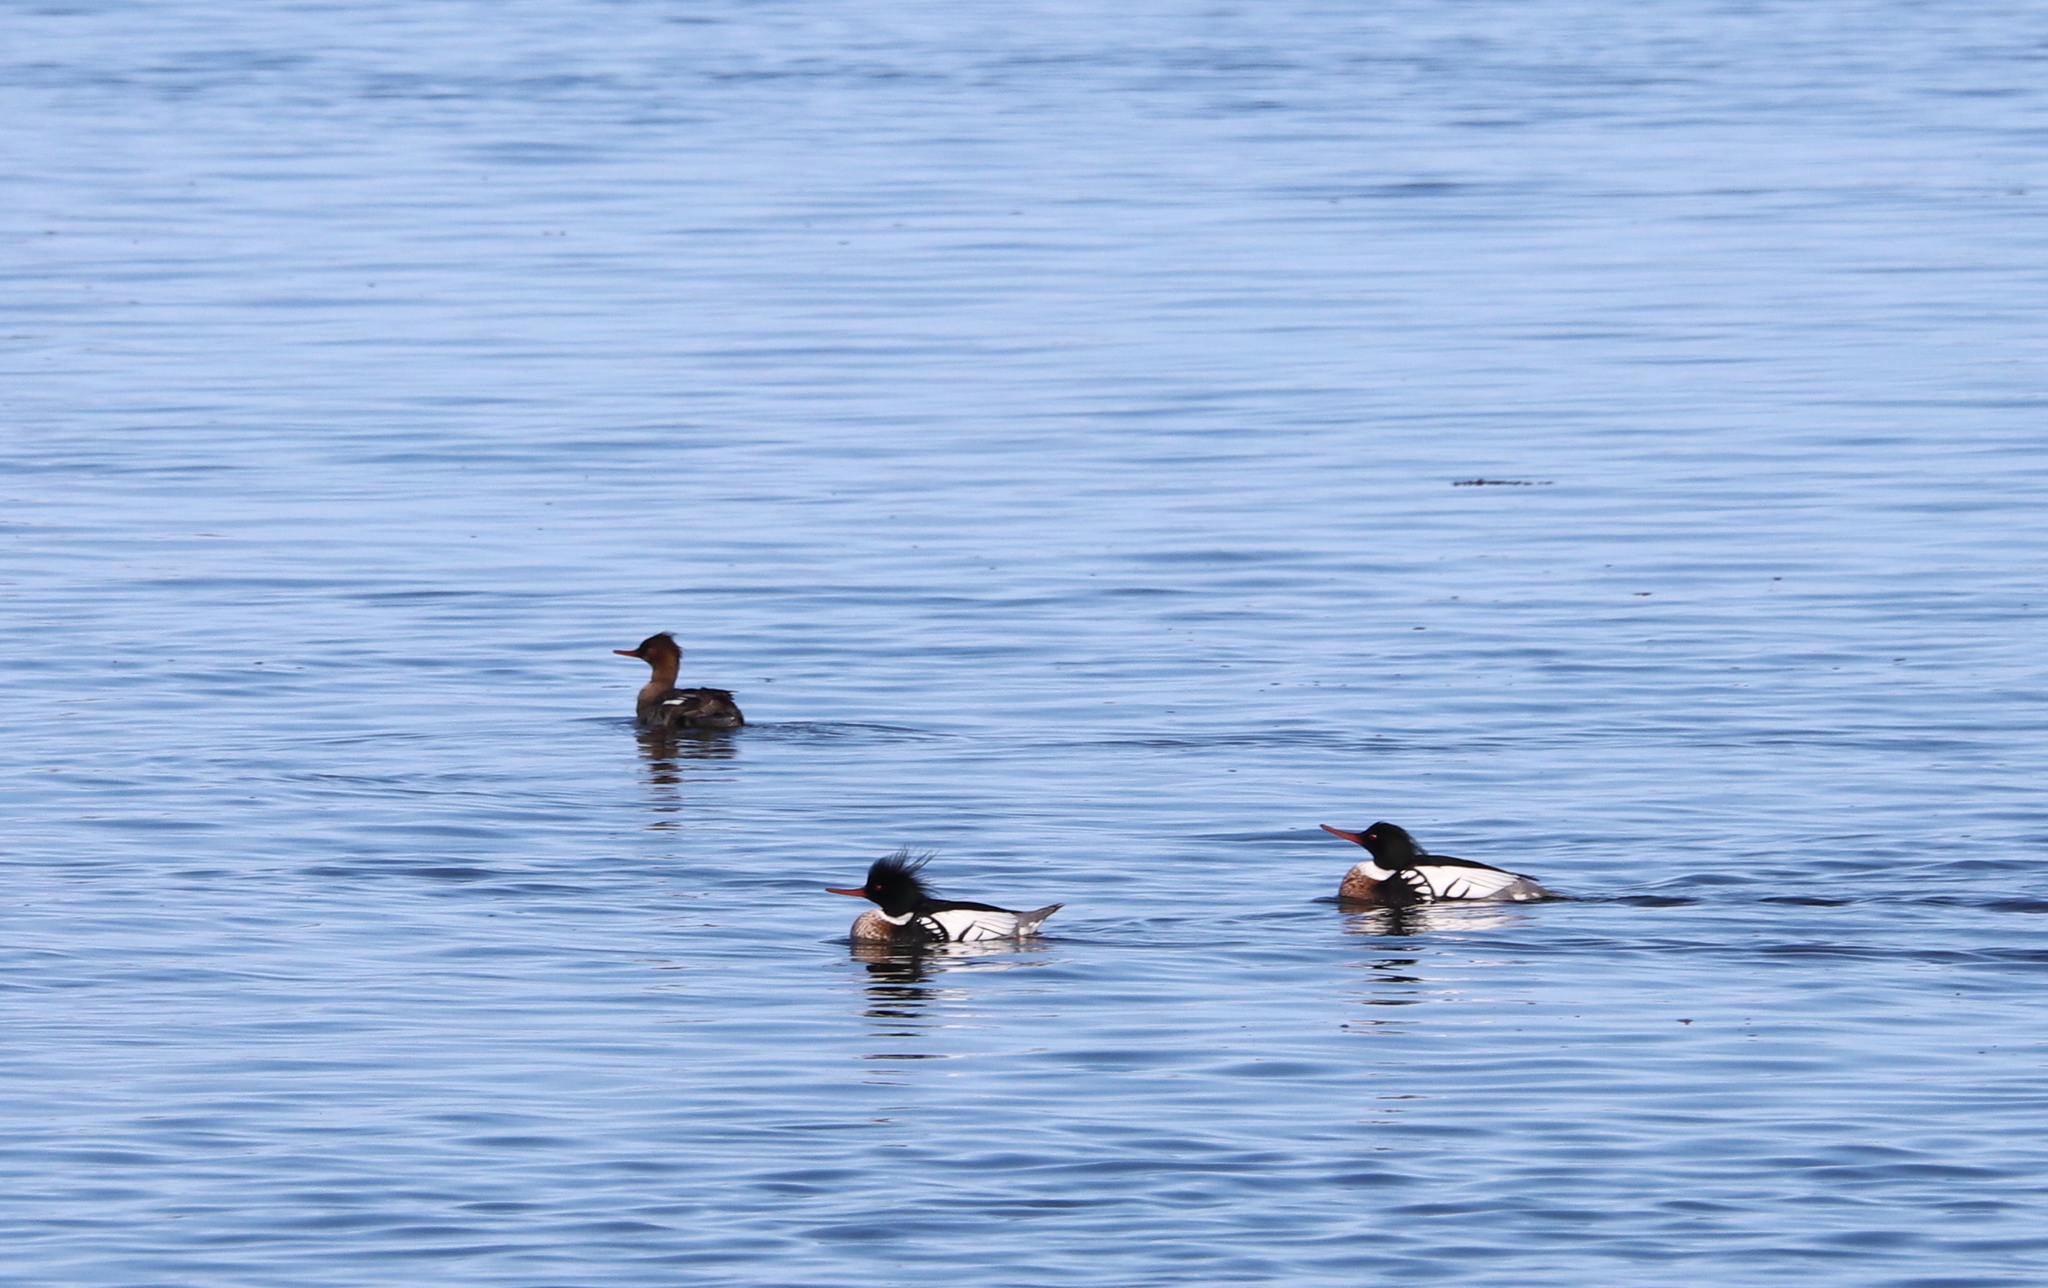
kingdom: Animalia
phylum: Chordata
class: Aves
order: Anseriformes
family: Anatidae
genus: Mergus
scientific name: Mergus serrator
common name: Red-breasted merganser
